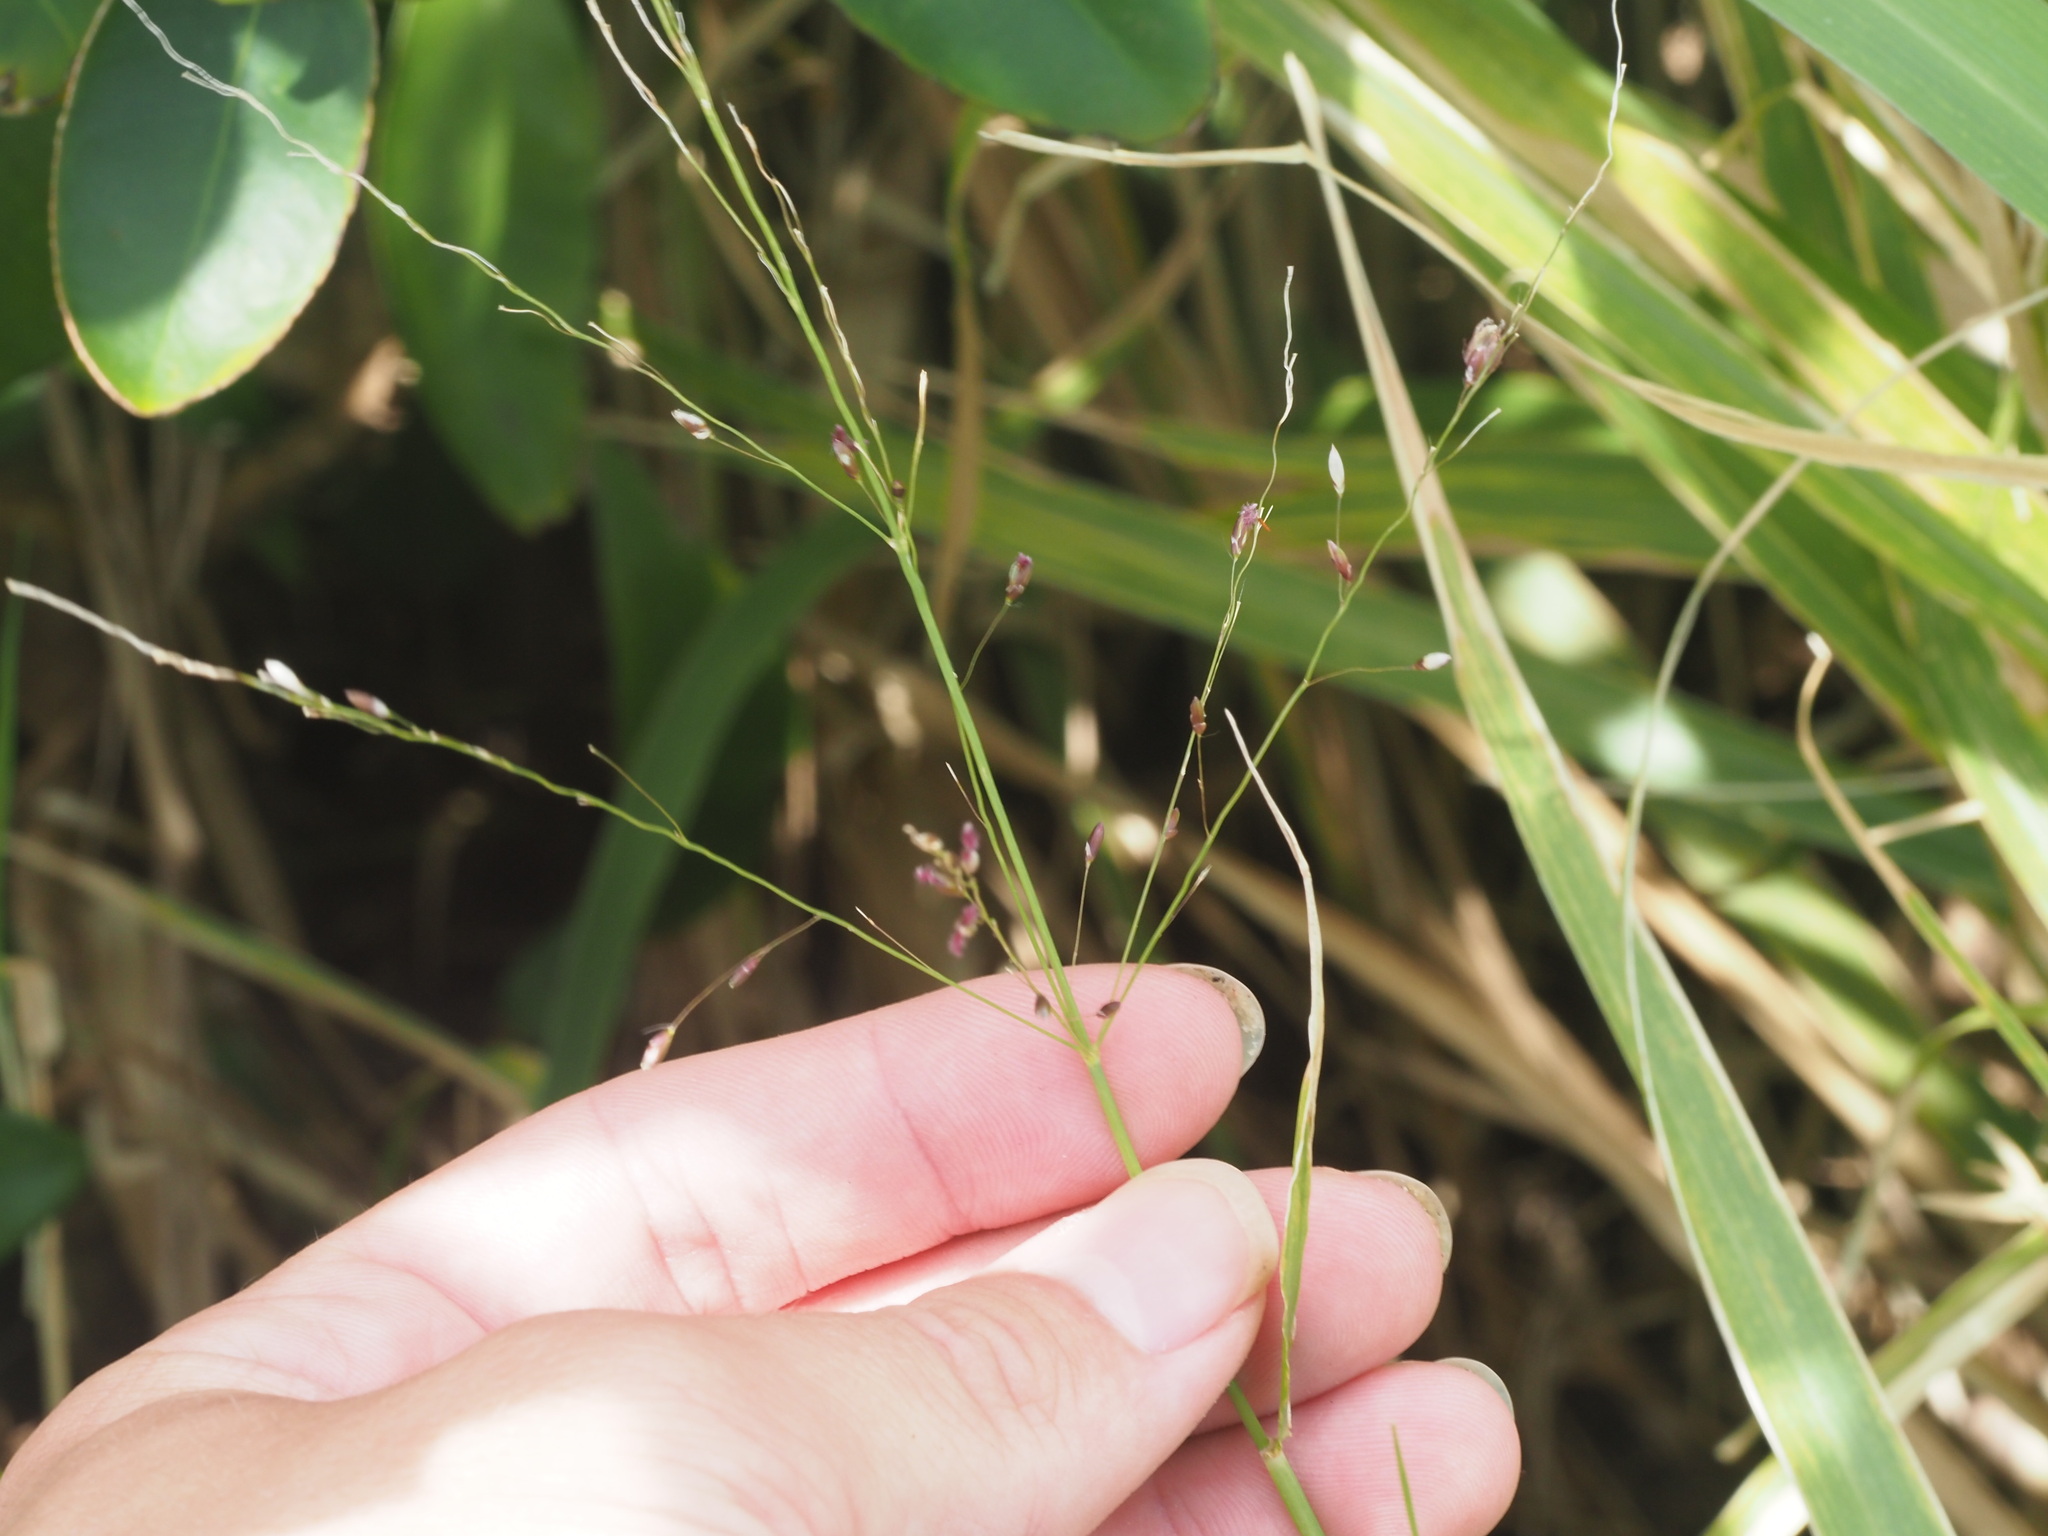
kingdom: Plantae
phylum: Tracheophyta
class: Liliopsida
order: Poales
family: Poaceae
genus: Megathyrsus
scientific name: Megathyrsus maximus
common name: Guineagrass
